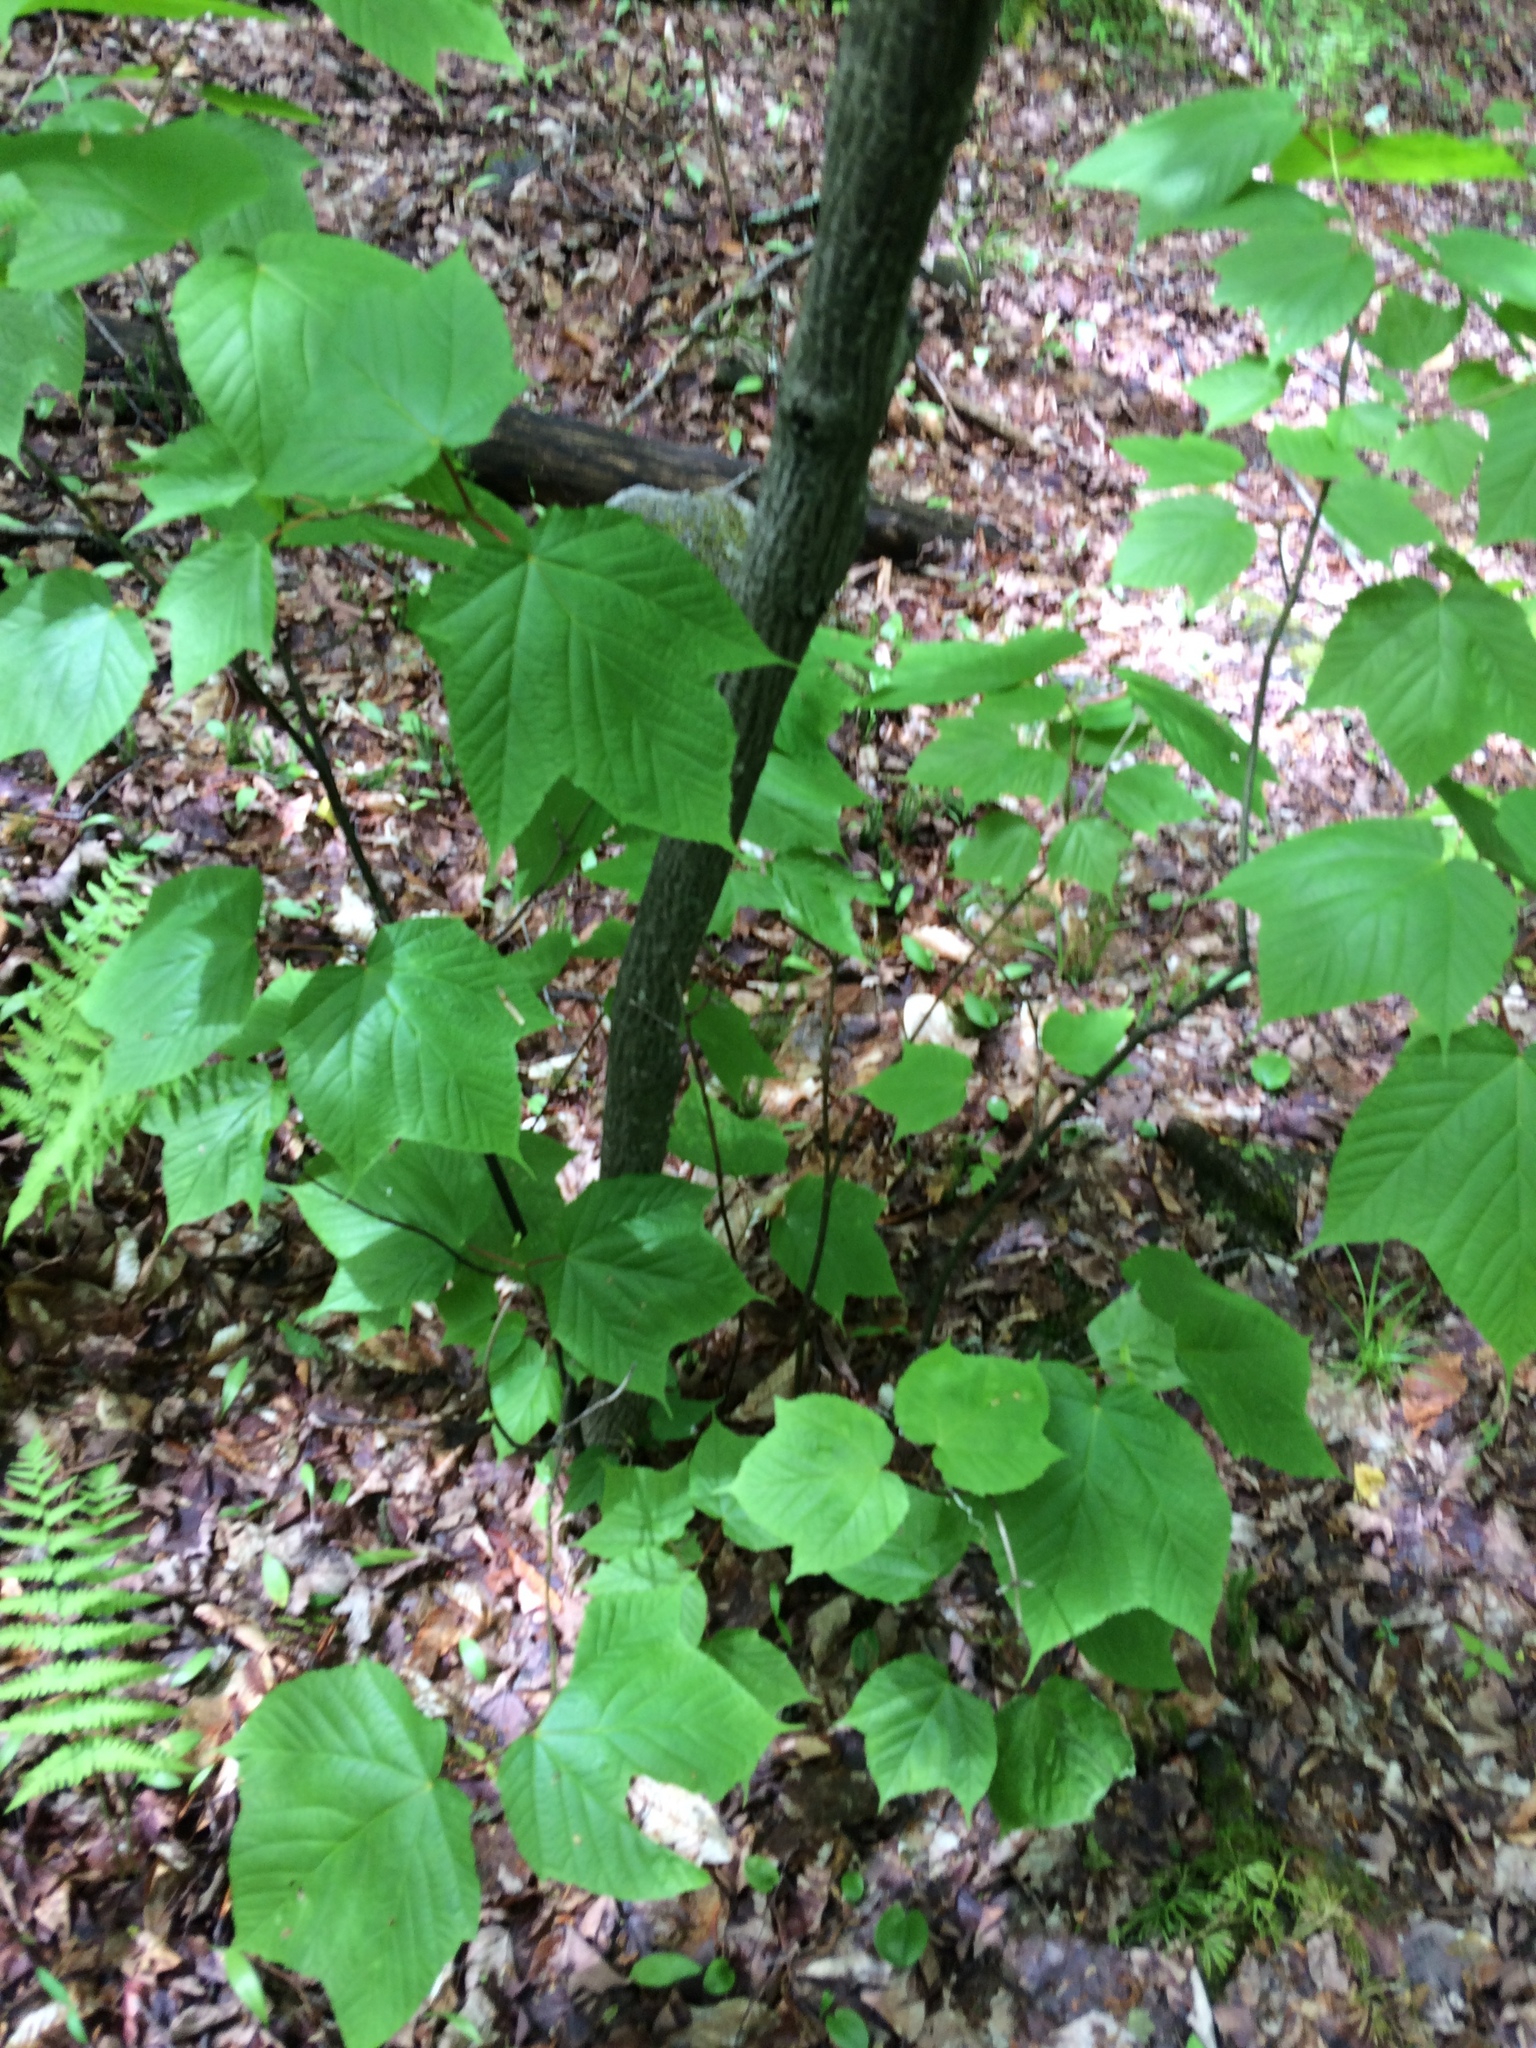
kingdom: Plantae
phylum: Tracheophyta
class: Magnoliopsida
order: Sapindales
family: Sapindaceae
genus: Acer
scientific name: Acer pensylvanicum
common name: Moosewood
